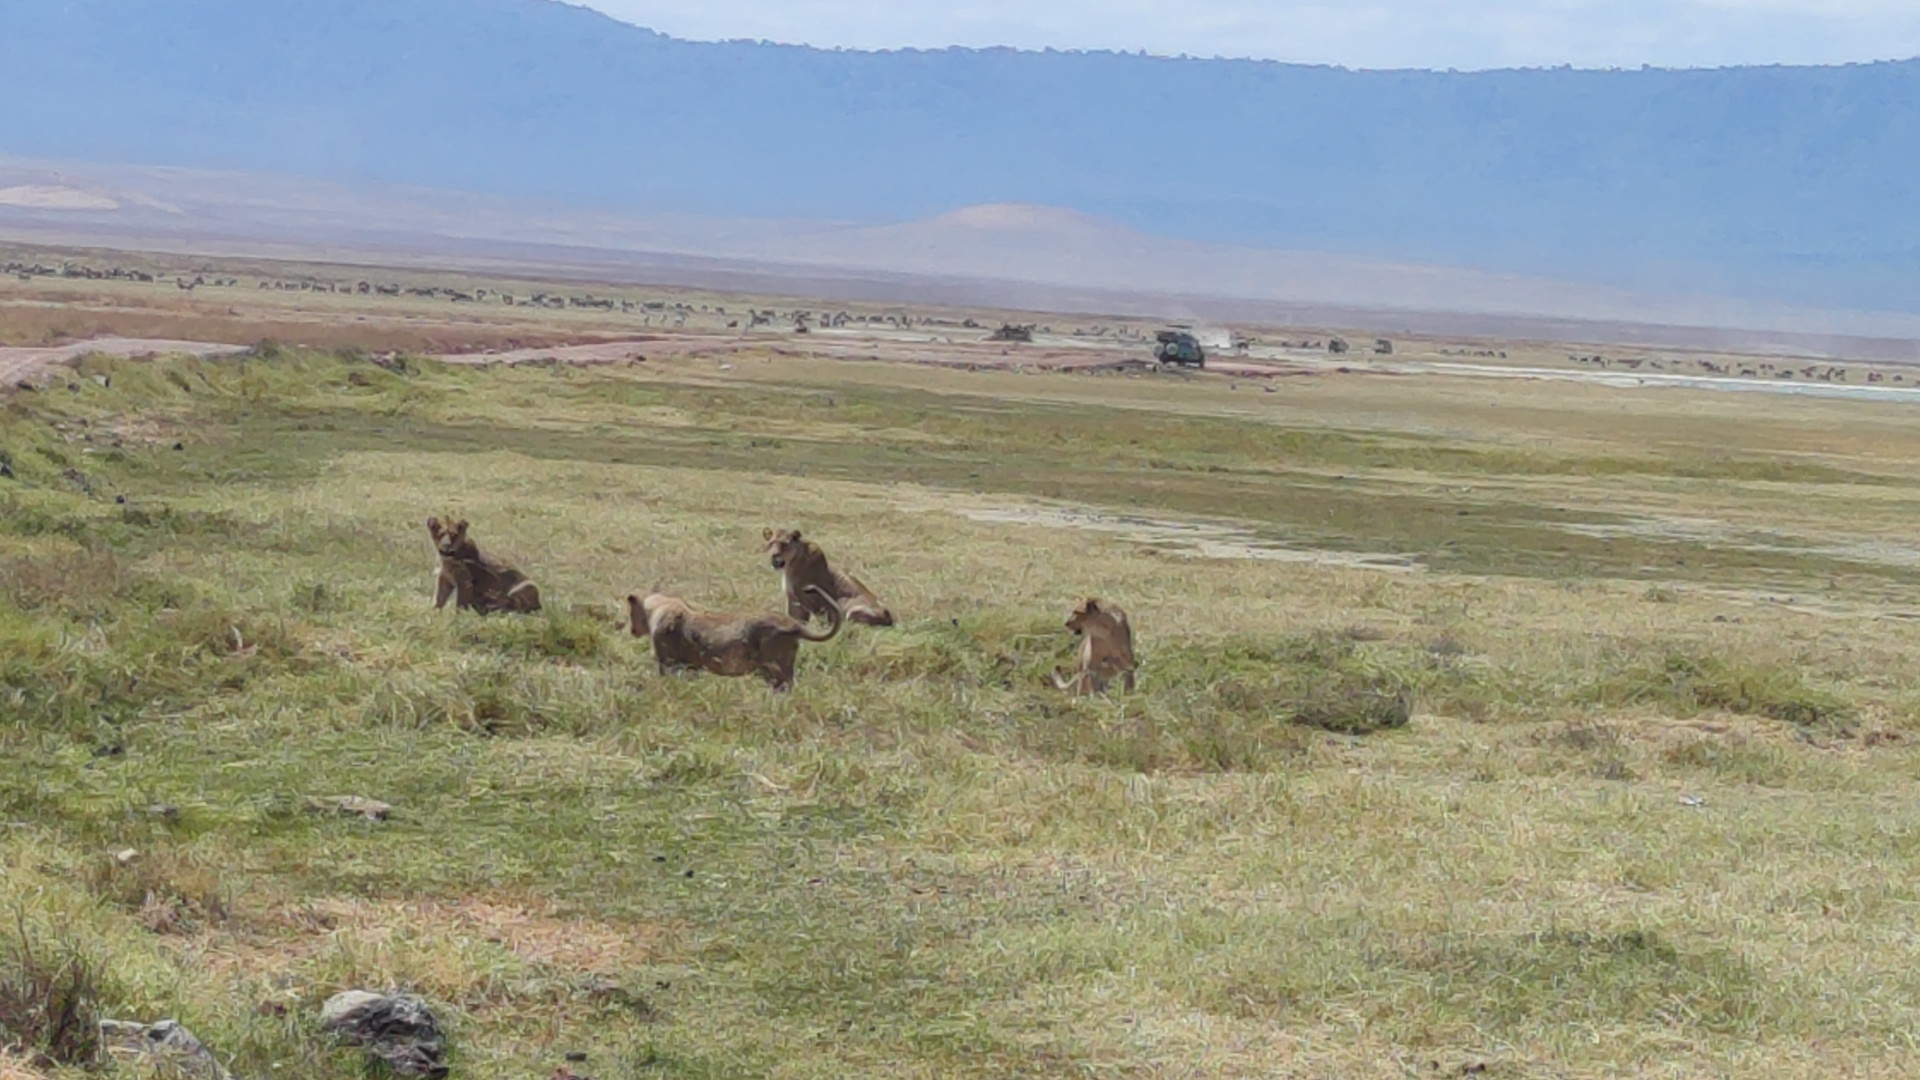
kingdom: Animalia
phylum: Chordata
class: Mammalia
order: Carnivora
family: Felidae
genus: Panthera
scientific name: Panthera leo
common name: Lion
